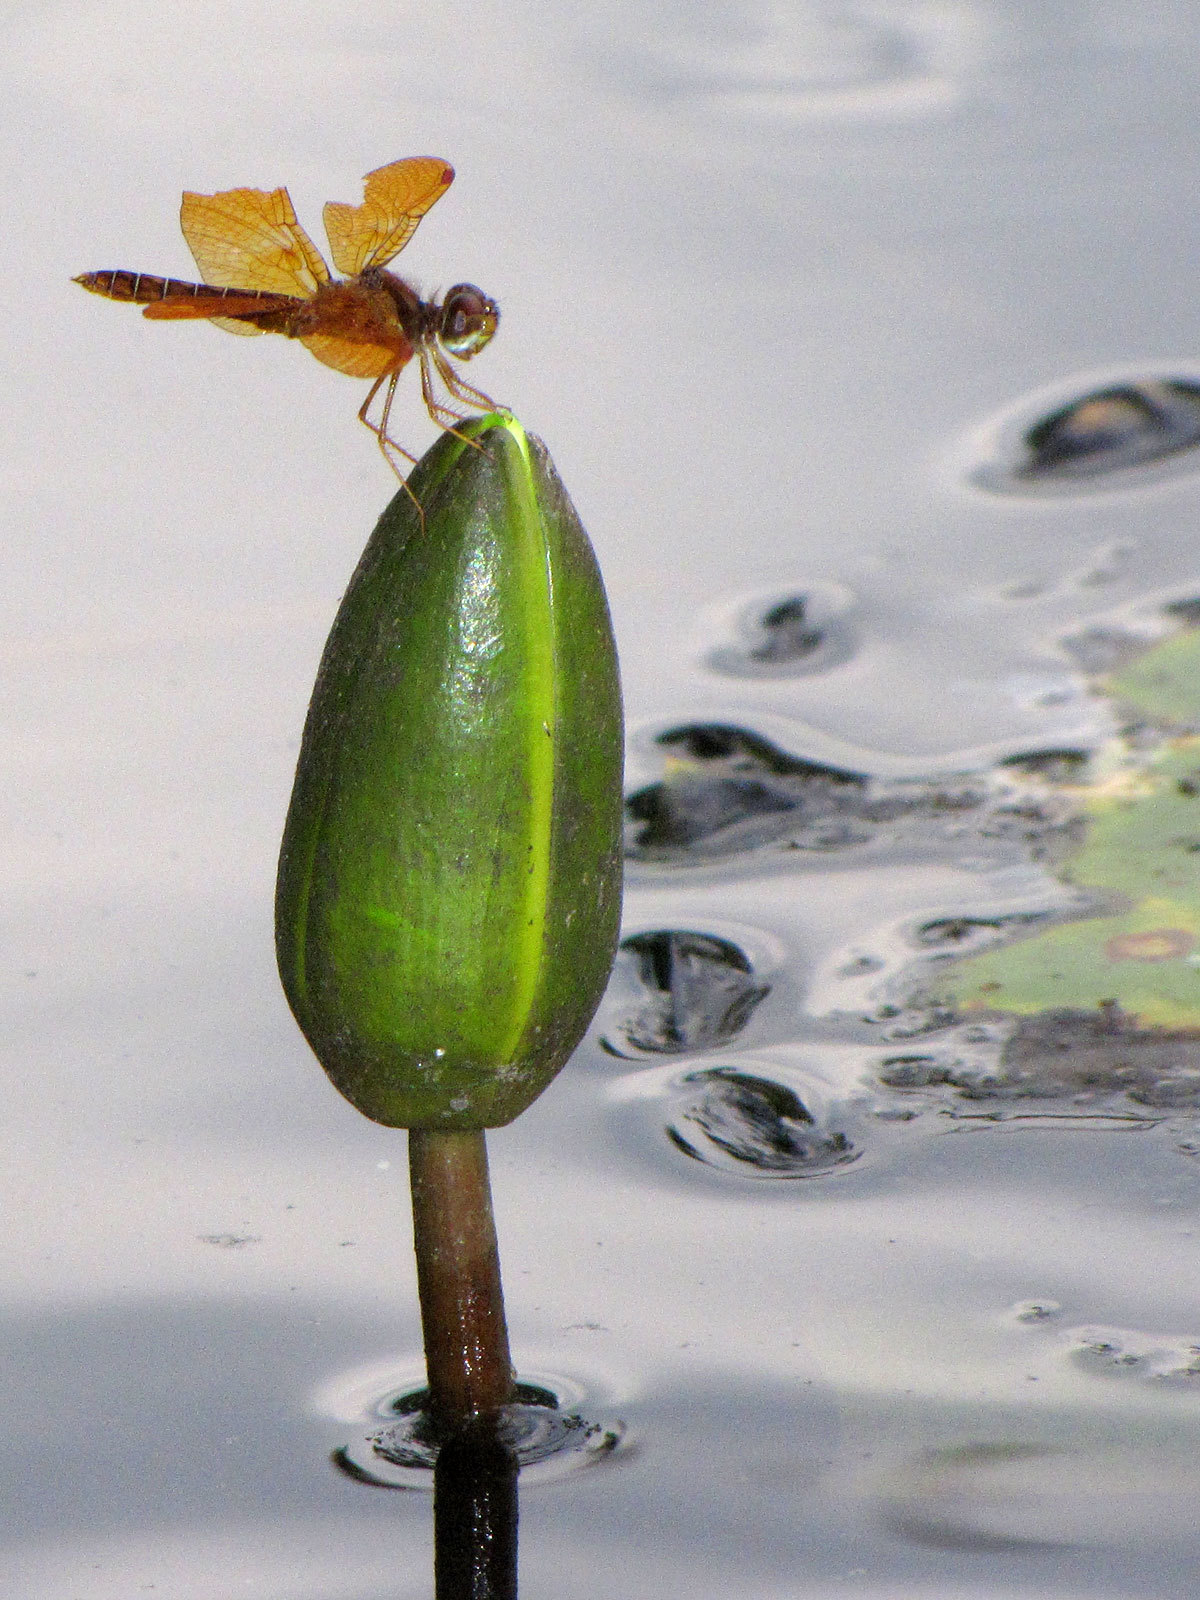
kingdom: Animalia
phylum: Arthropoda
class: Insecta
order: Odonata
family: Libellulidae
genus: Perithemis
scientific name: Perithemis tenera
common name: Eastern amberwing
